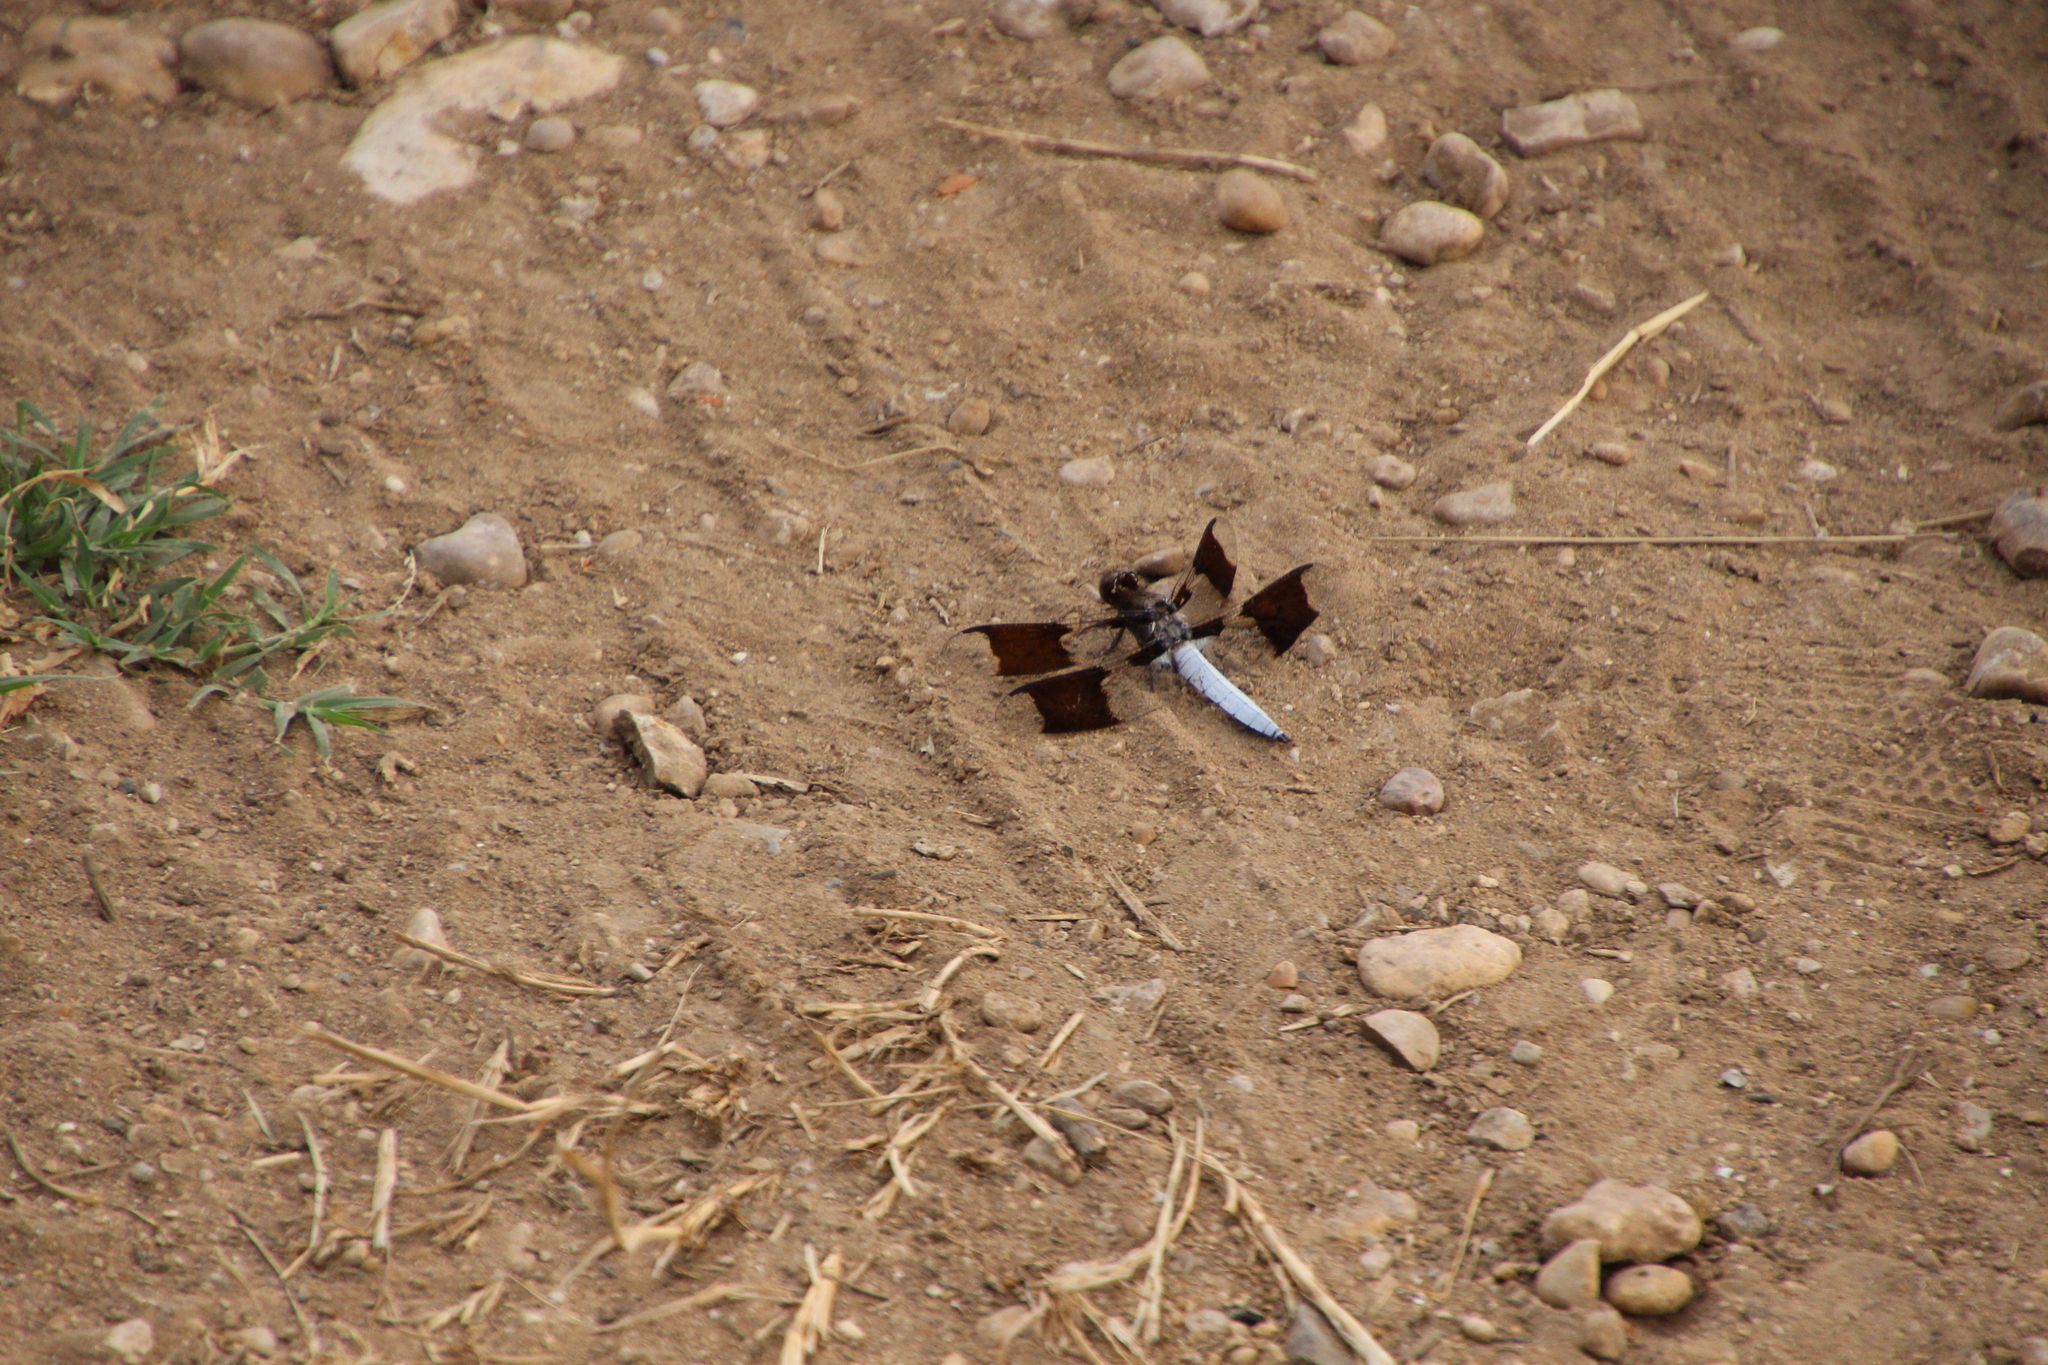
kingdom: Animalia
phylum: Arthropoda
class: Insecta
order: Odonata
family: Libellulidae
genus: Plathemis
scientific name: Plathemis lydia
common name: Common whitetail
